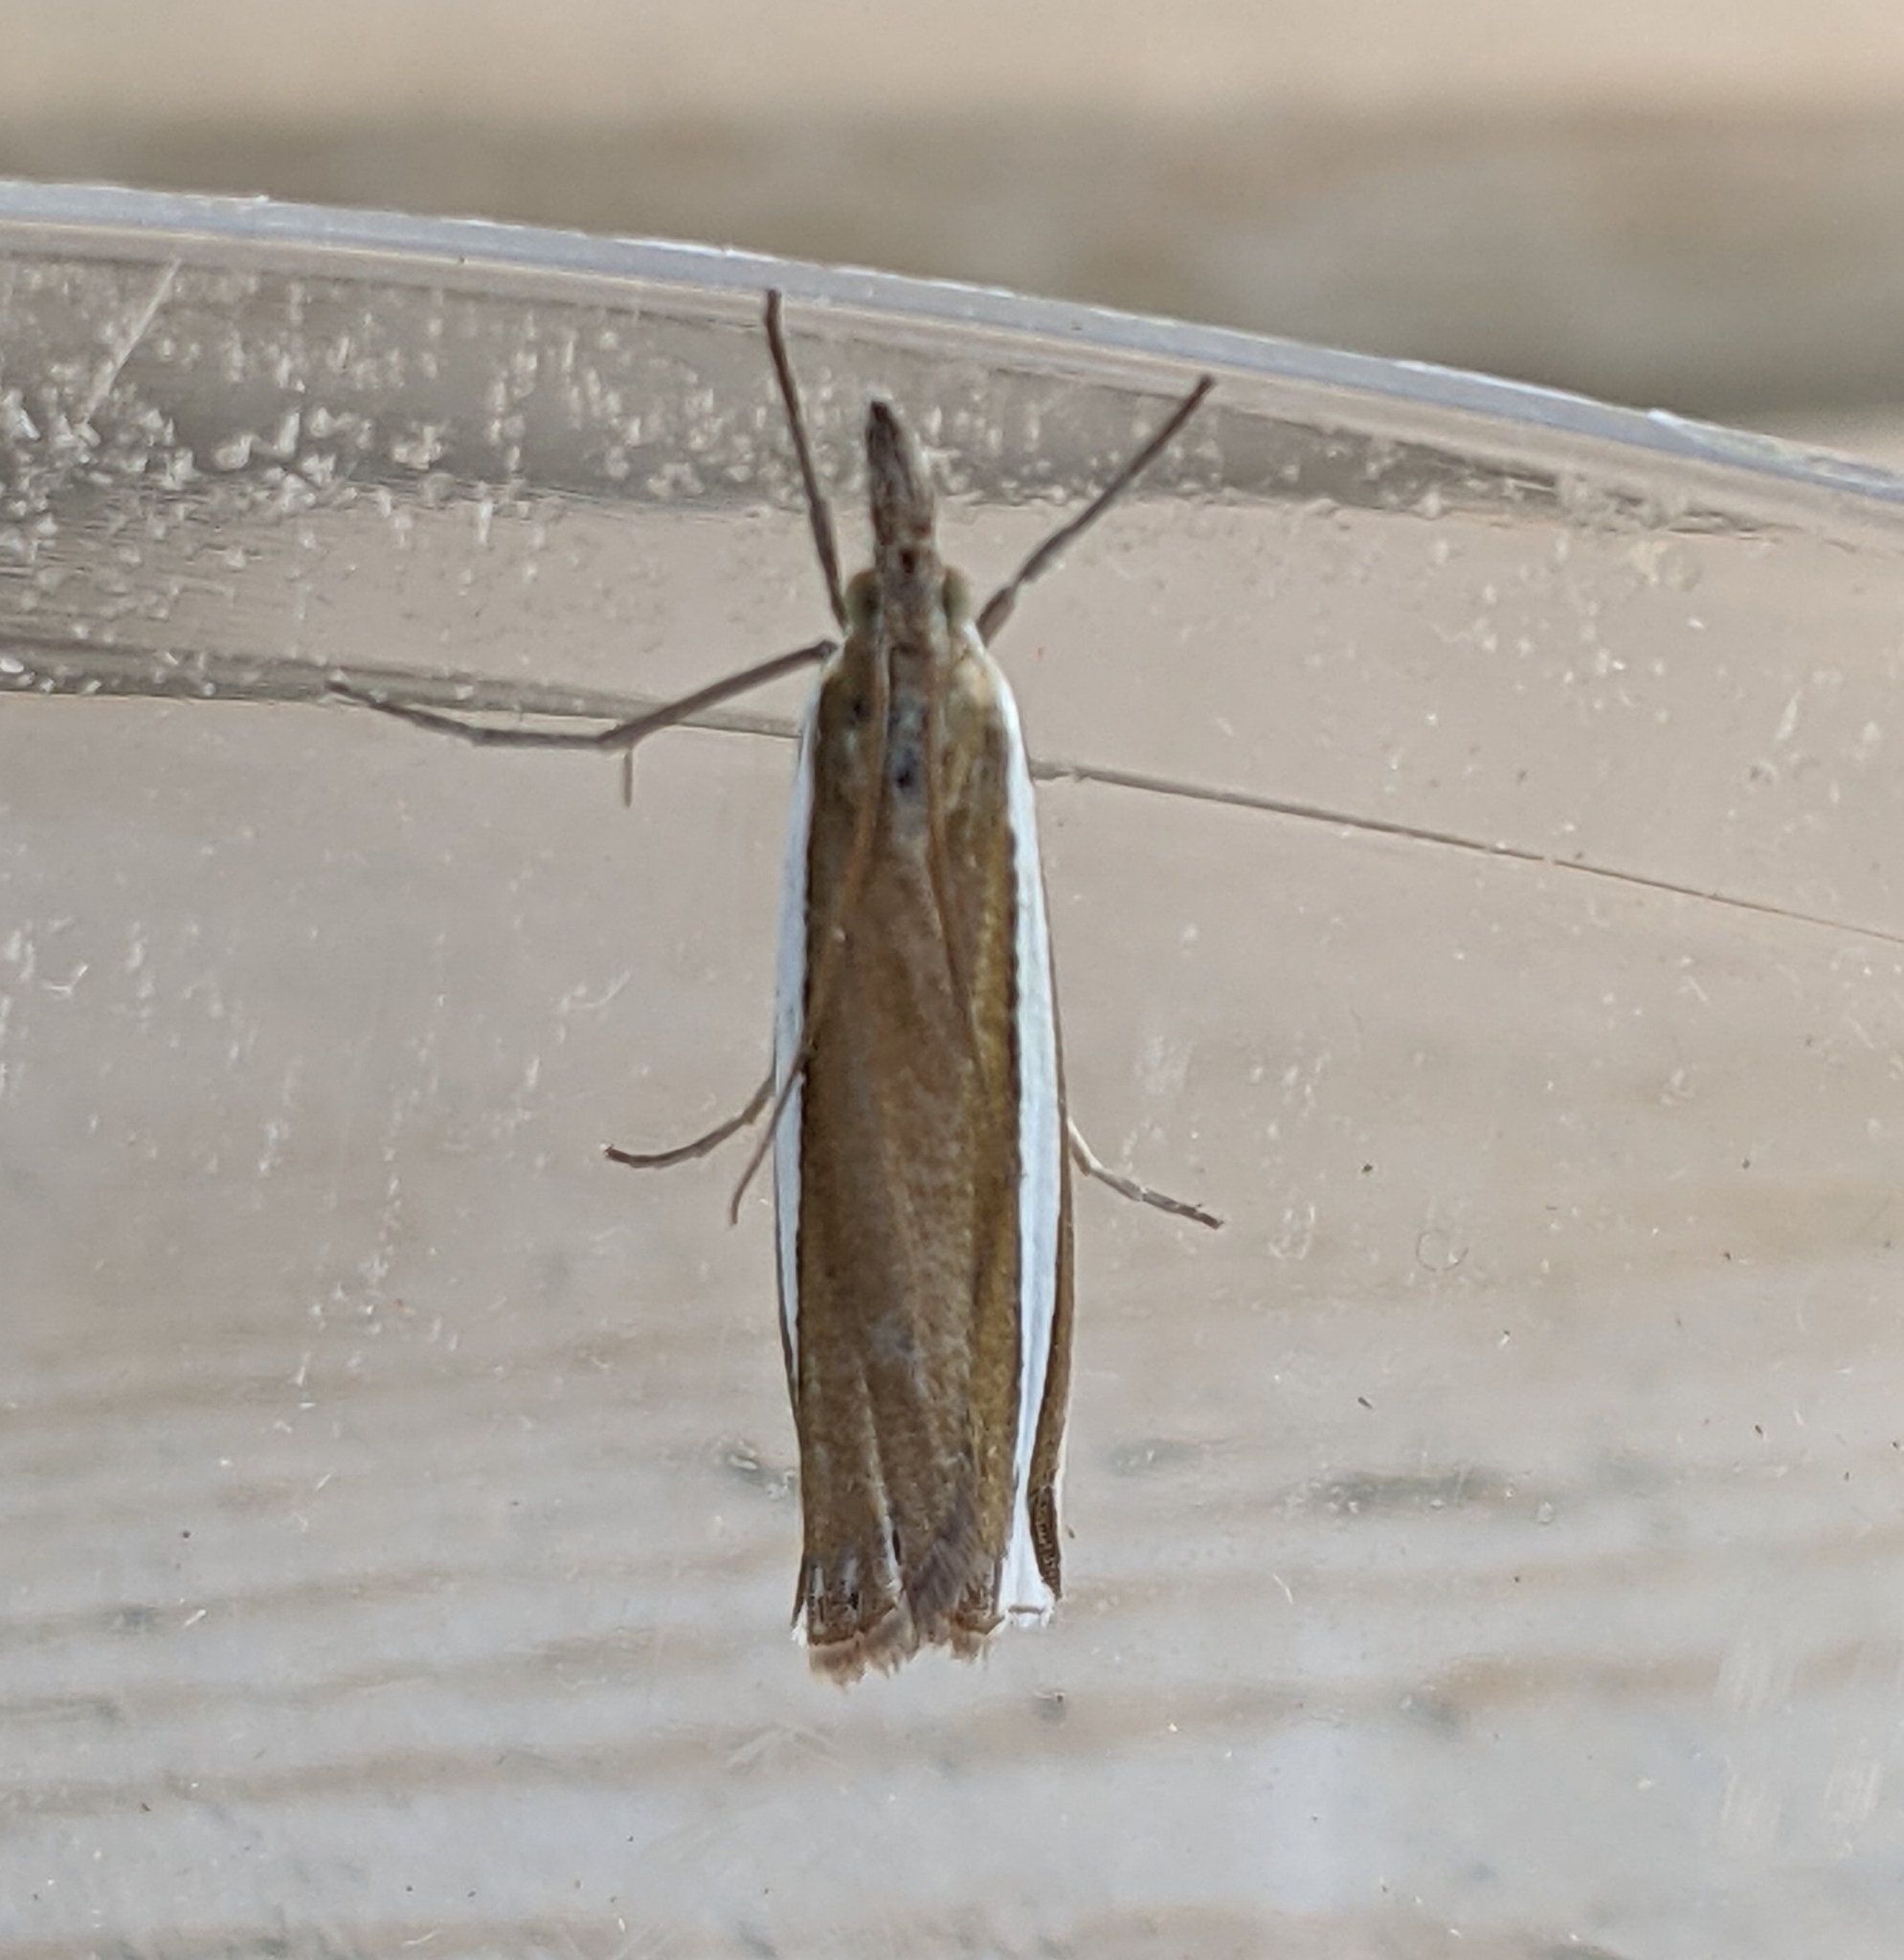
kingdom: Animalia
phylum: Arthropoda
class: Insecta
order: Lepidoptera
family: Crambidae
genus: Crambus
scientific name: Crambus unistriatellus
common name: Wide-stripe grass-veneer moth
